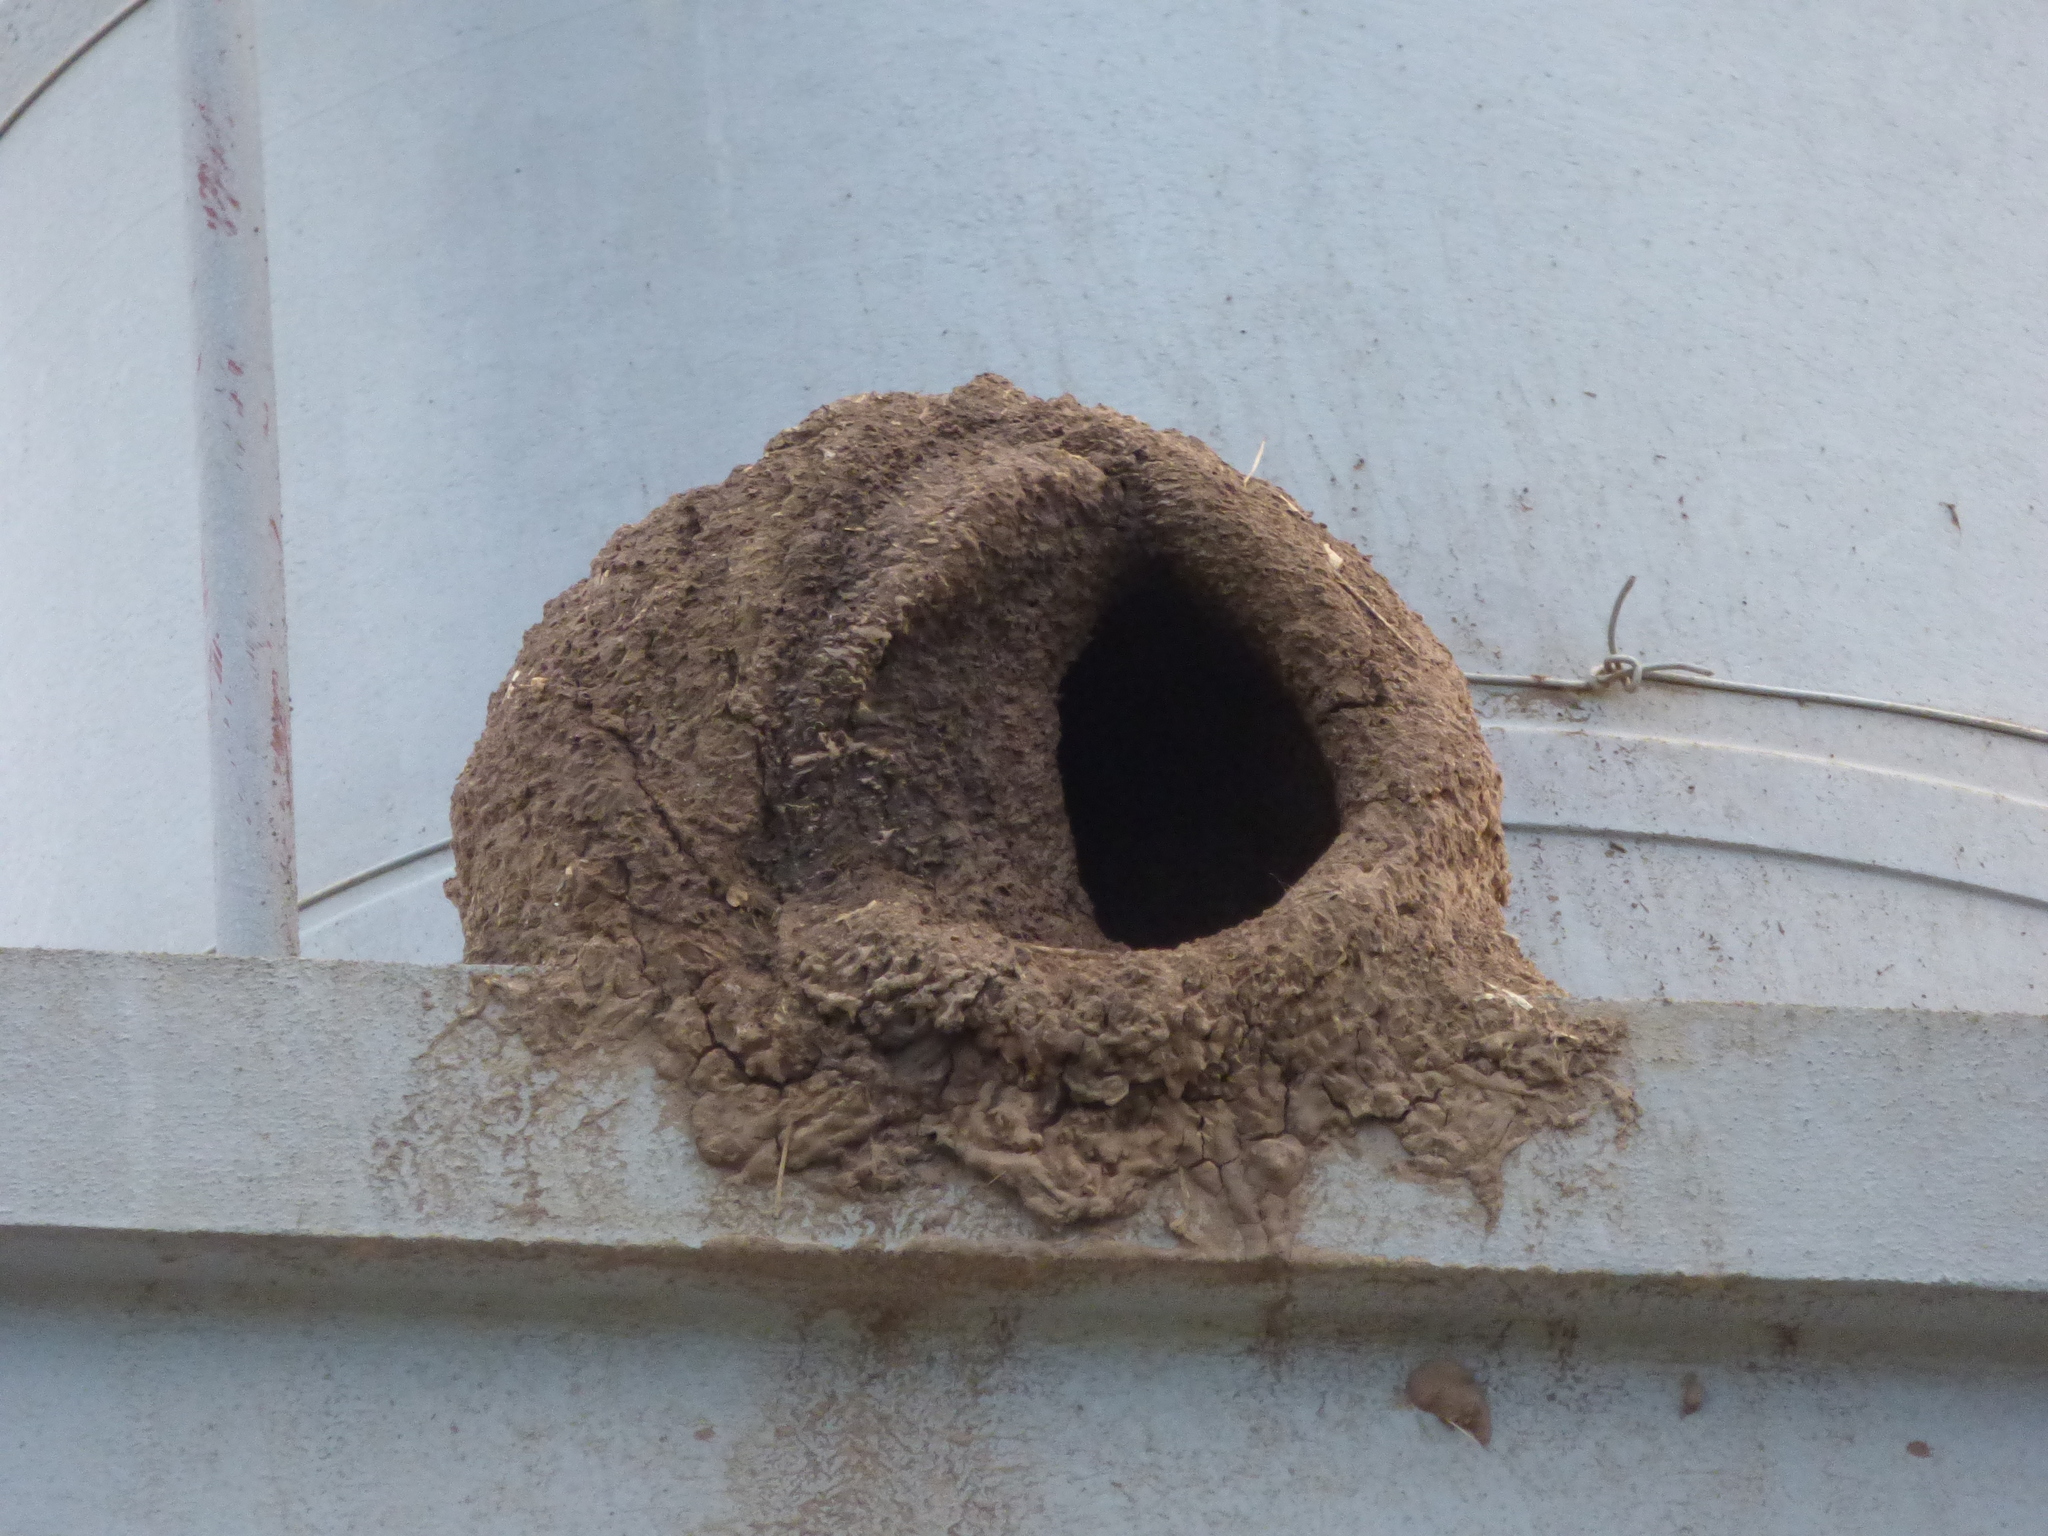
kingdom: Animalia
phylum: Chordata
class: Aves
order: Passeriformes
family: Furnariidae
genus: Furnarius
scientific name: Furnarius rufus
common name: Rufous hornero
